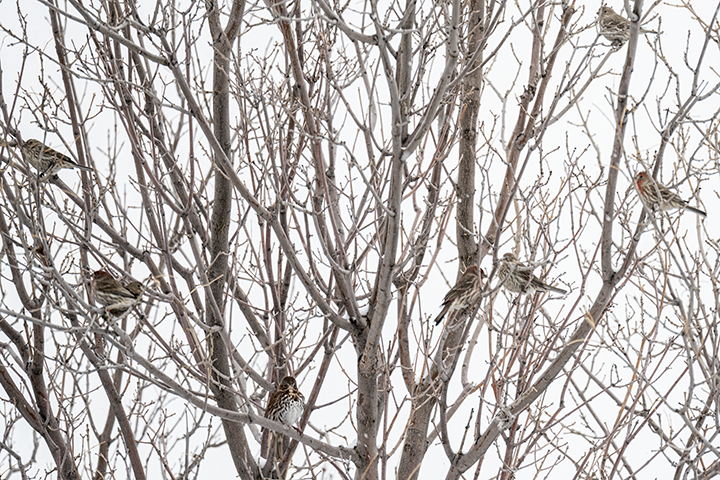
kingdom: Animalia
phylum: Chordata
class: Aves
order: Passeriformes
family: Passerellidae
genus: Passerella
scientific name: Passerella iliaca
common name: Fox sparrow
